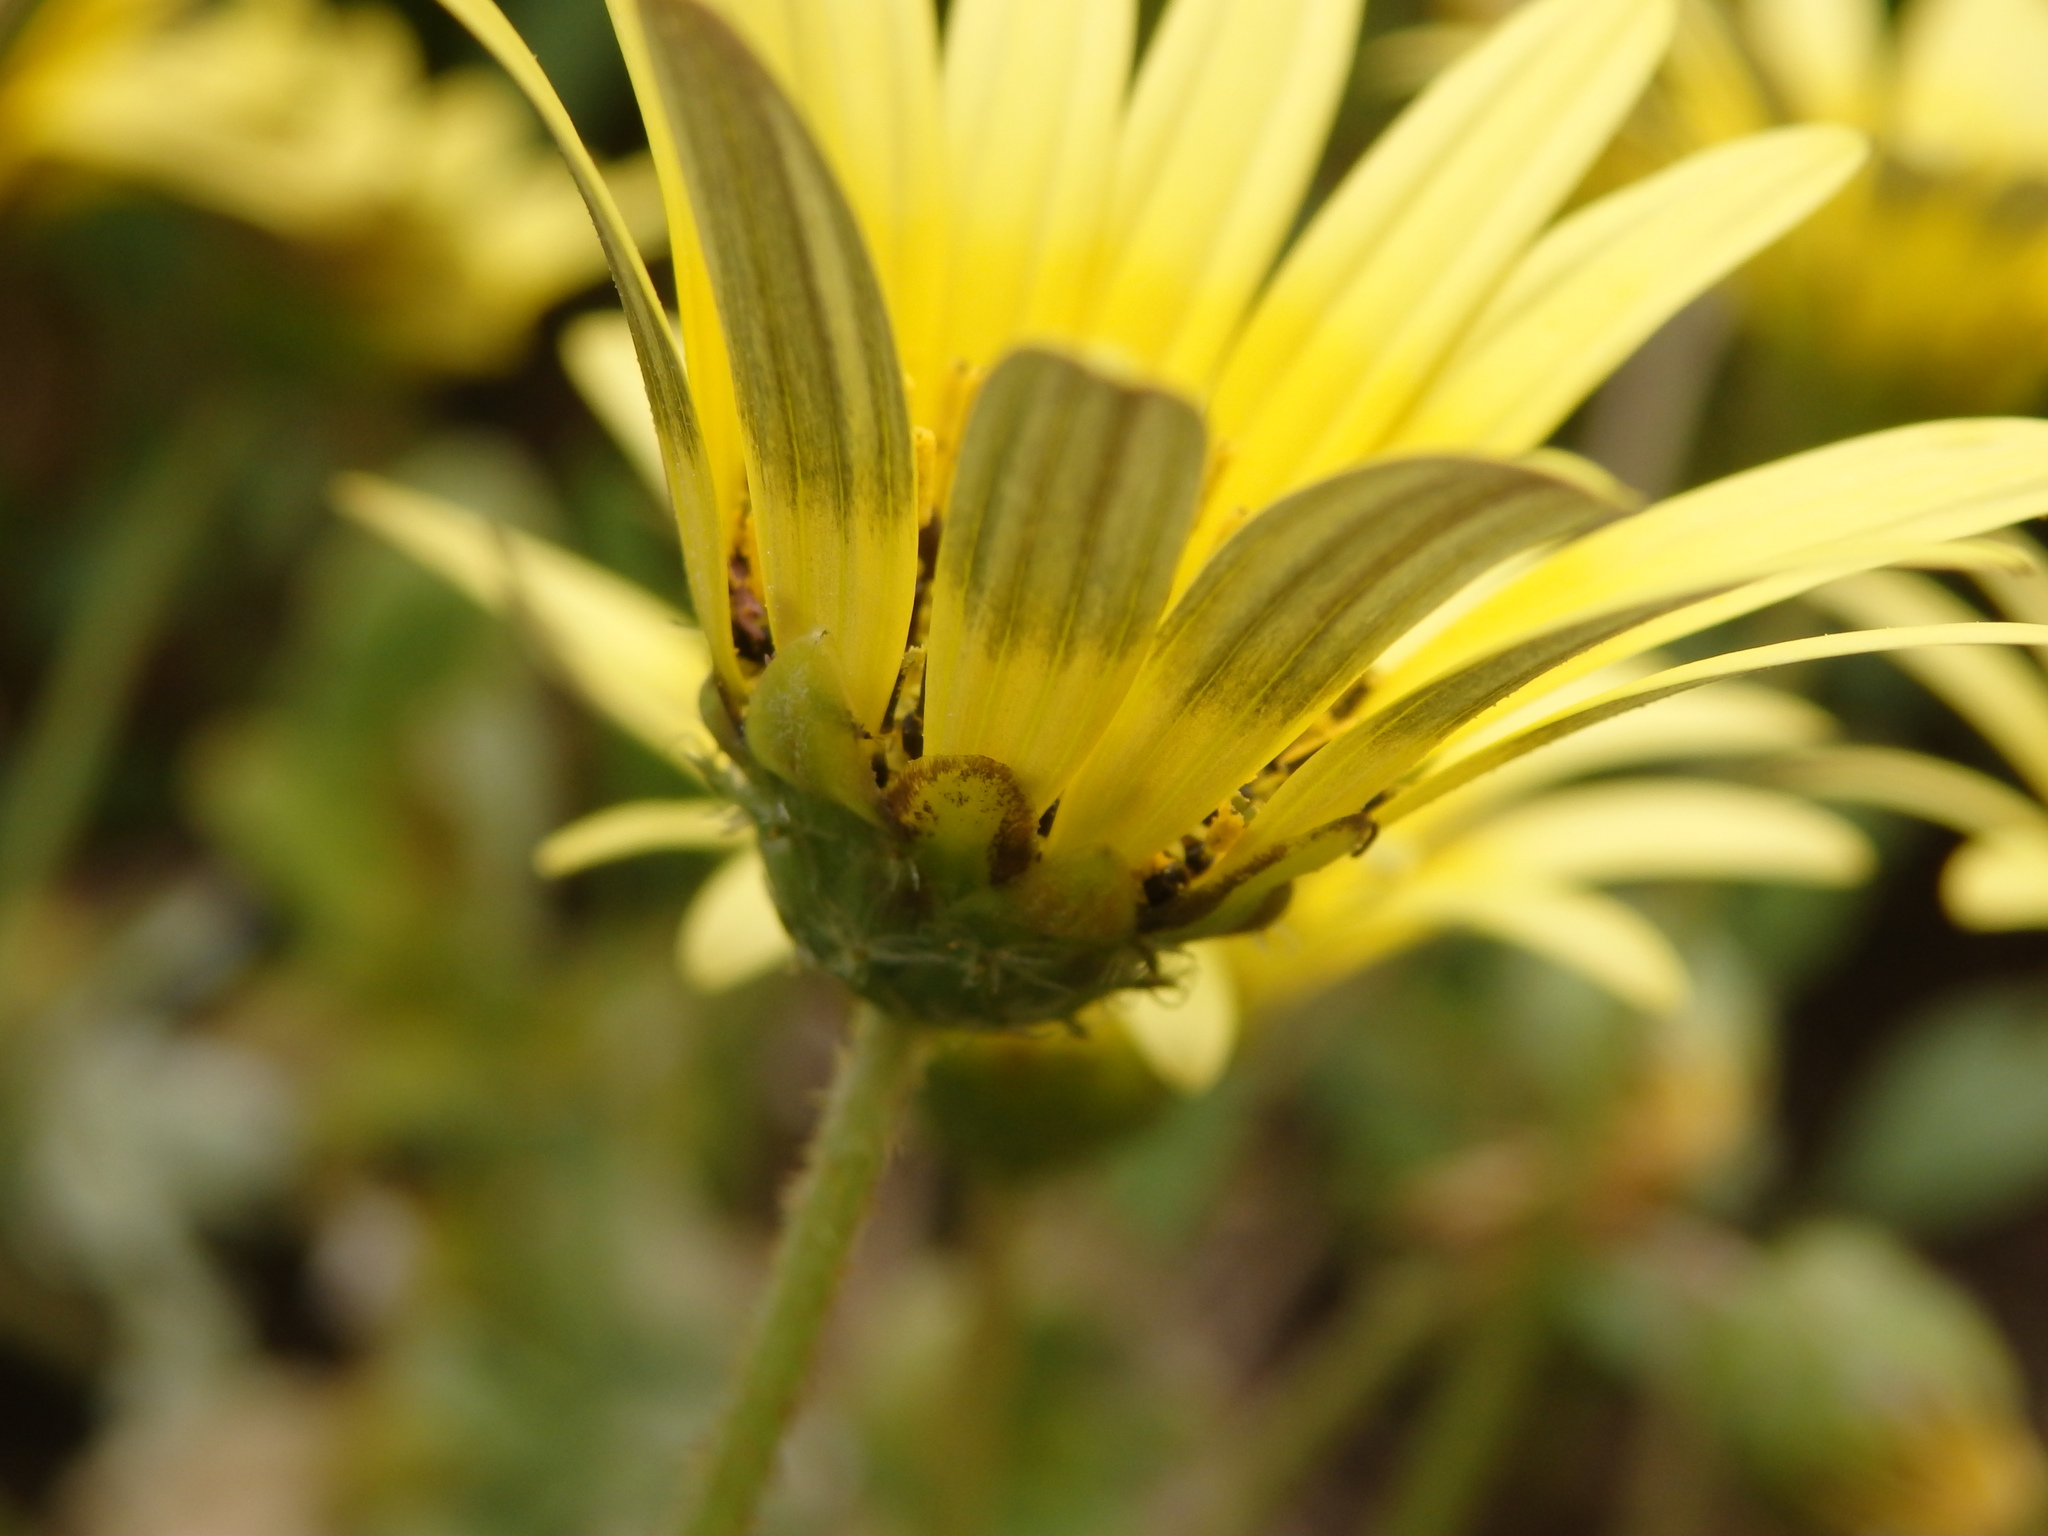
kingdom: Plantae
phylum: Tracheophyta
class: Magnoliopsida
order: Asterales
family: Asteraceae
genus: Arctotheca
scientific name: Arctotheca calendula
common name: Capeweed
